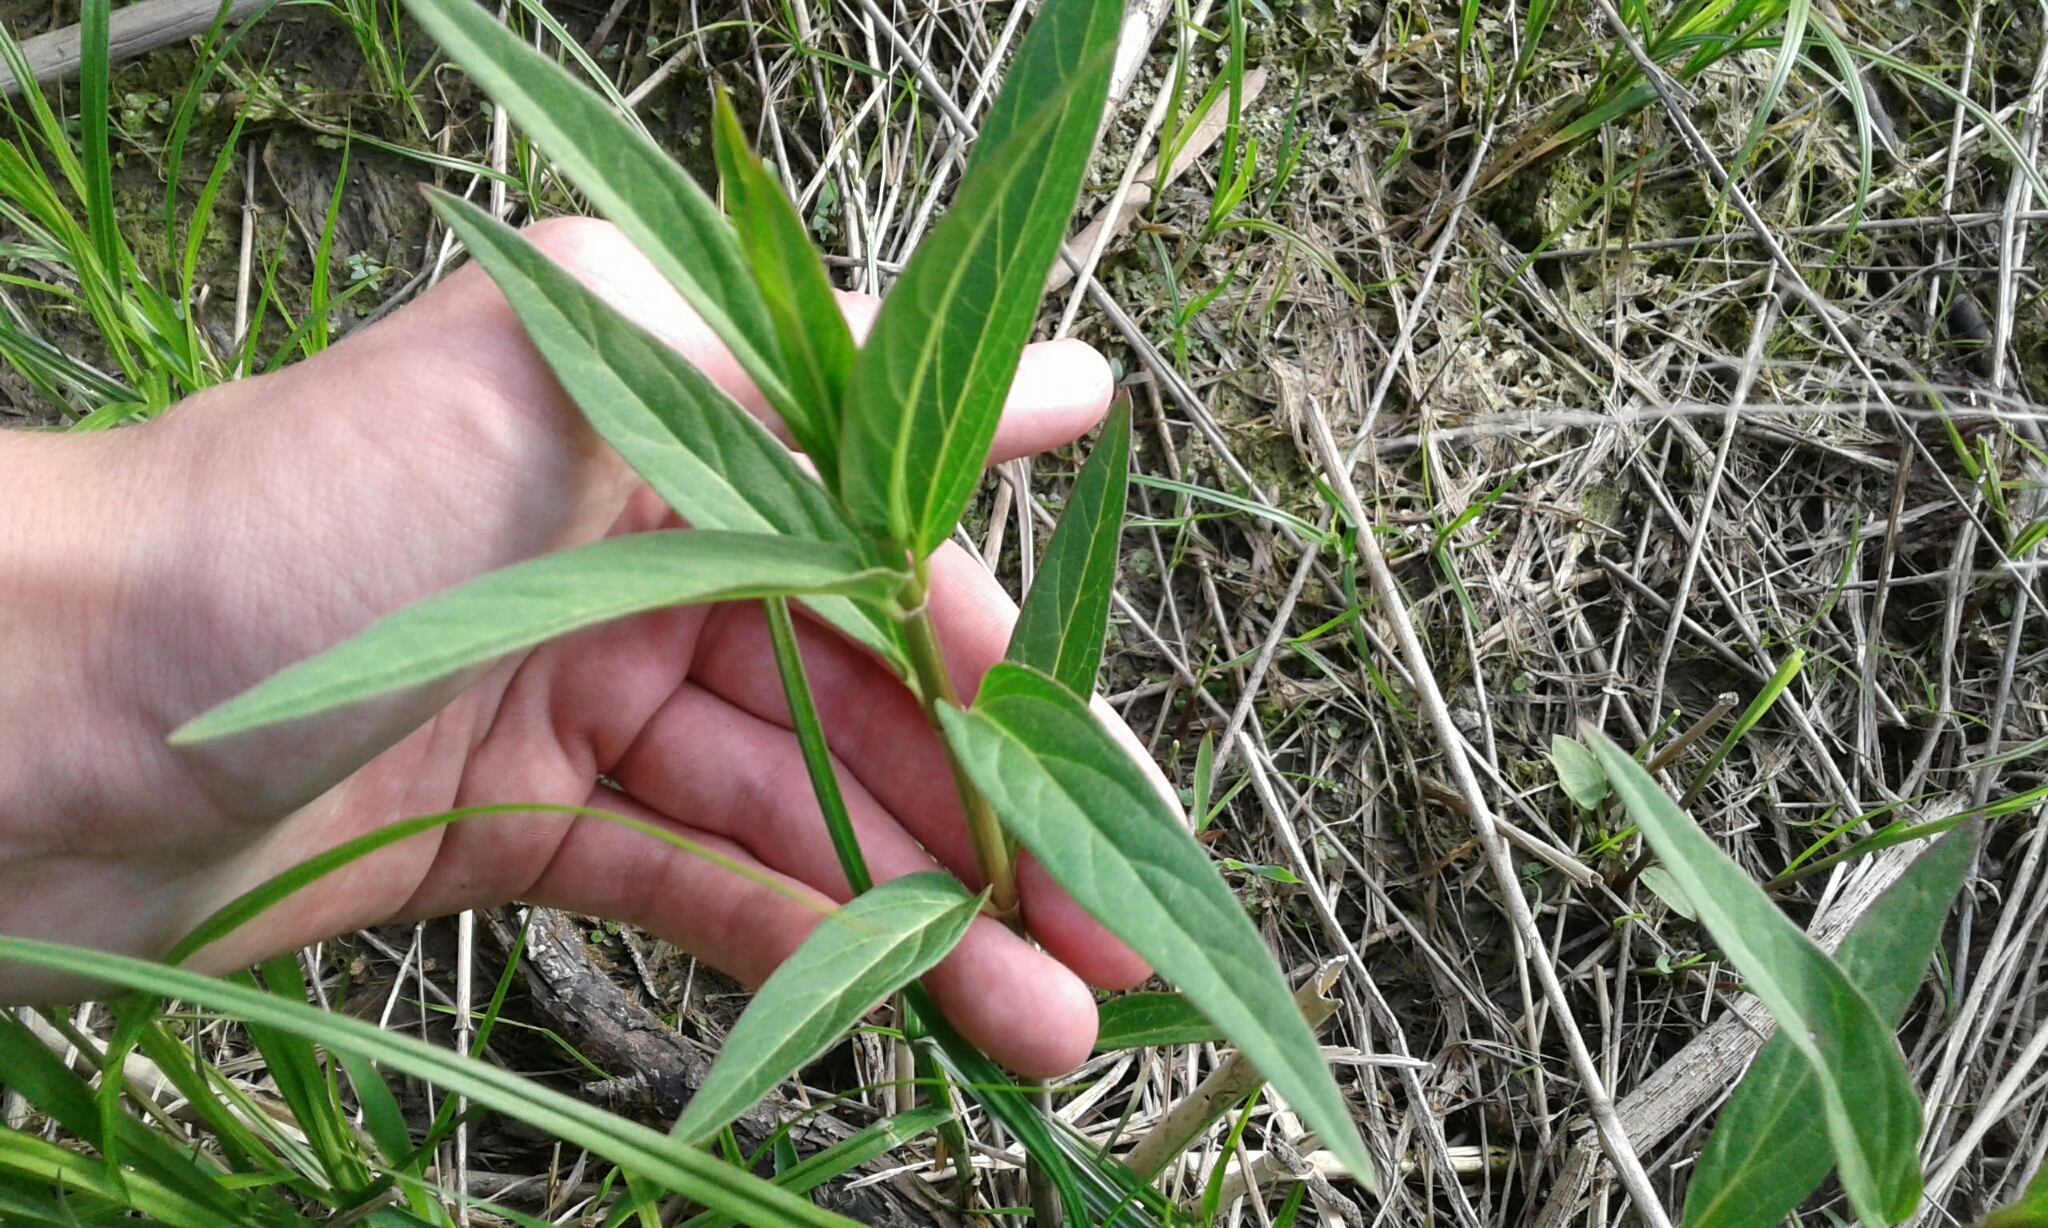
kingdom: Plantae
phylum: Tracheophyta
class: Magnoliopsida
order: Gentianales
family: Apocynaceae
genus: Asclepias
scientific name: Asclepias incarnata
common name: Swamp milkweed
